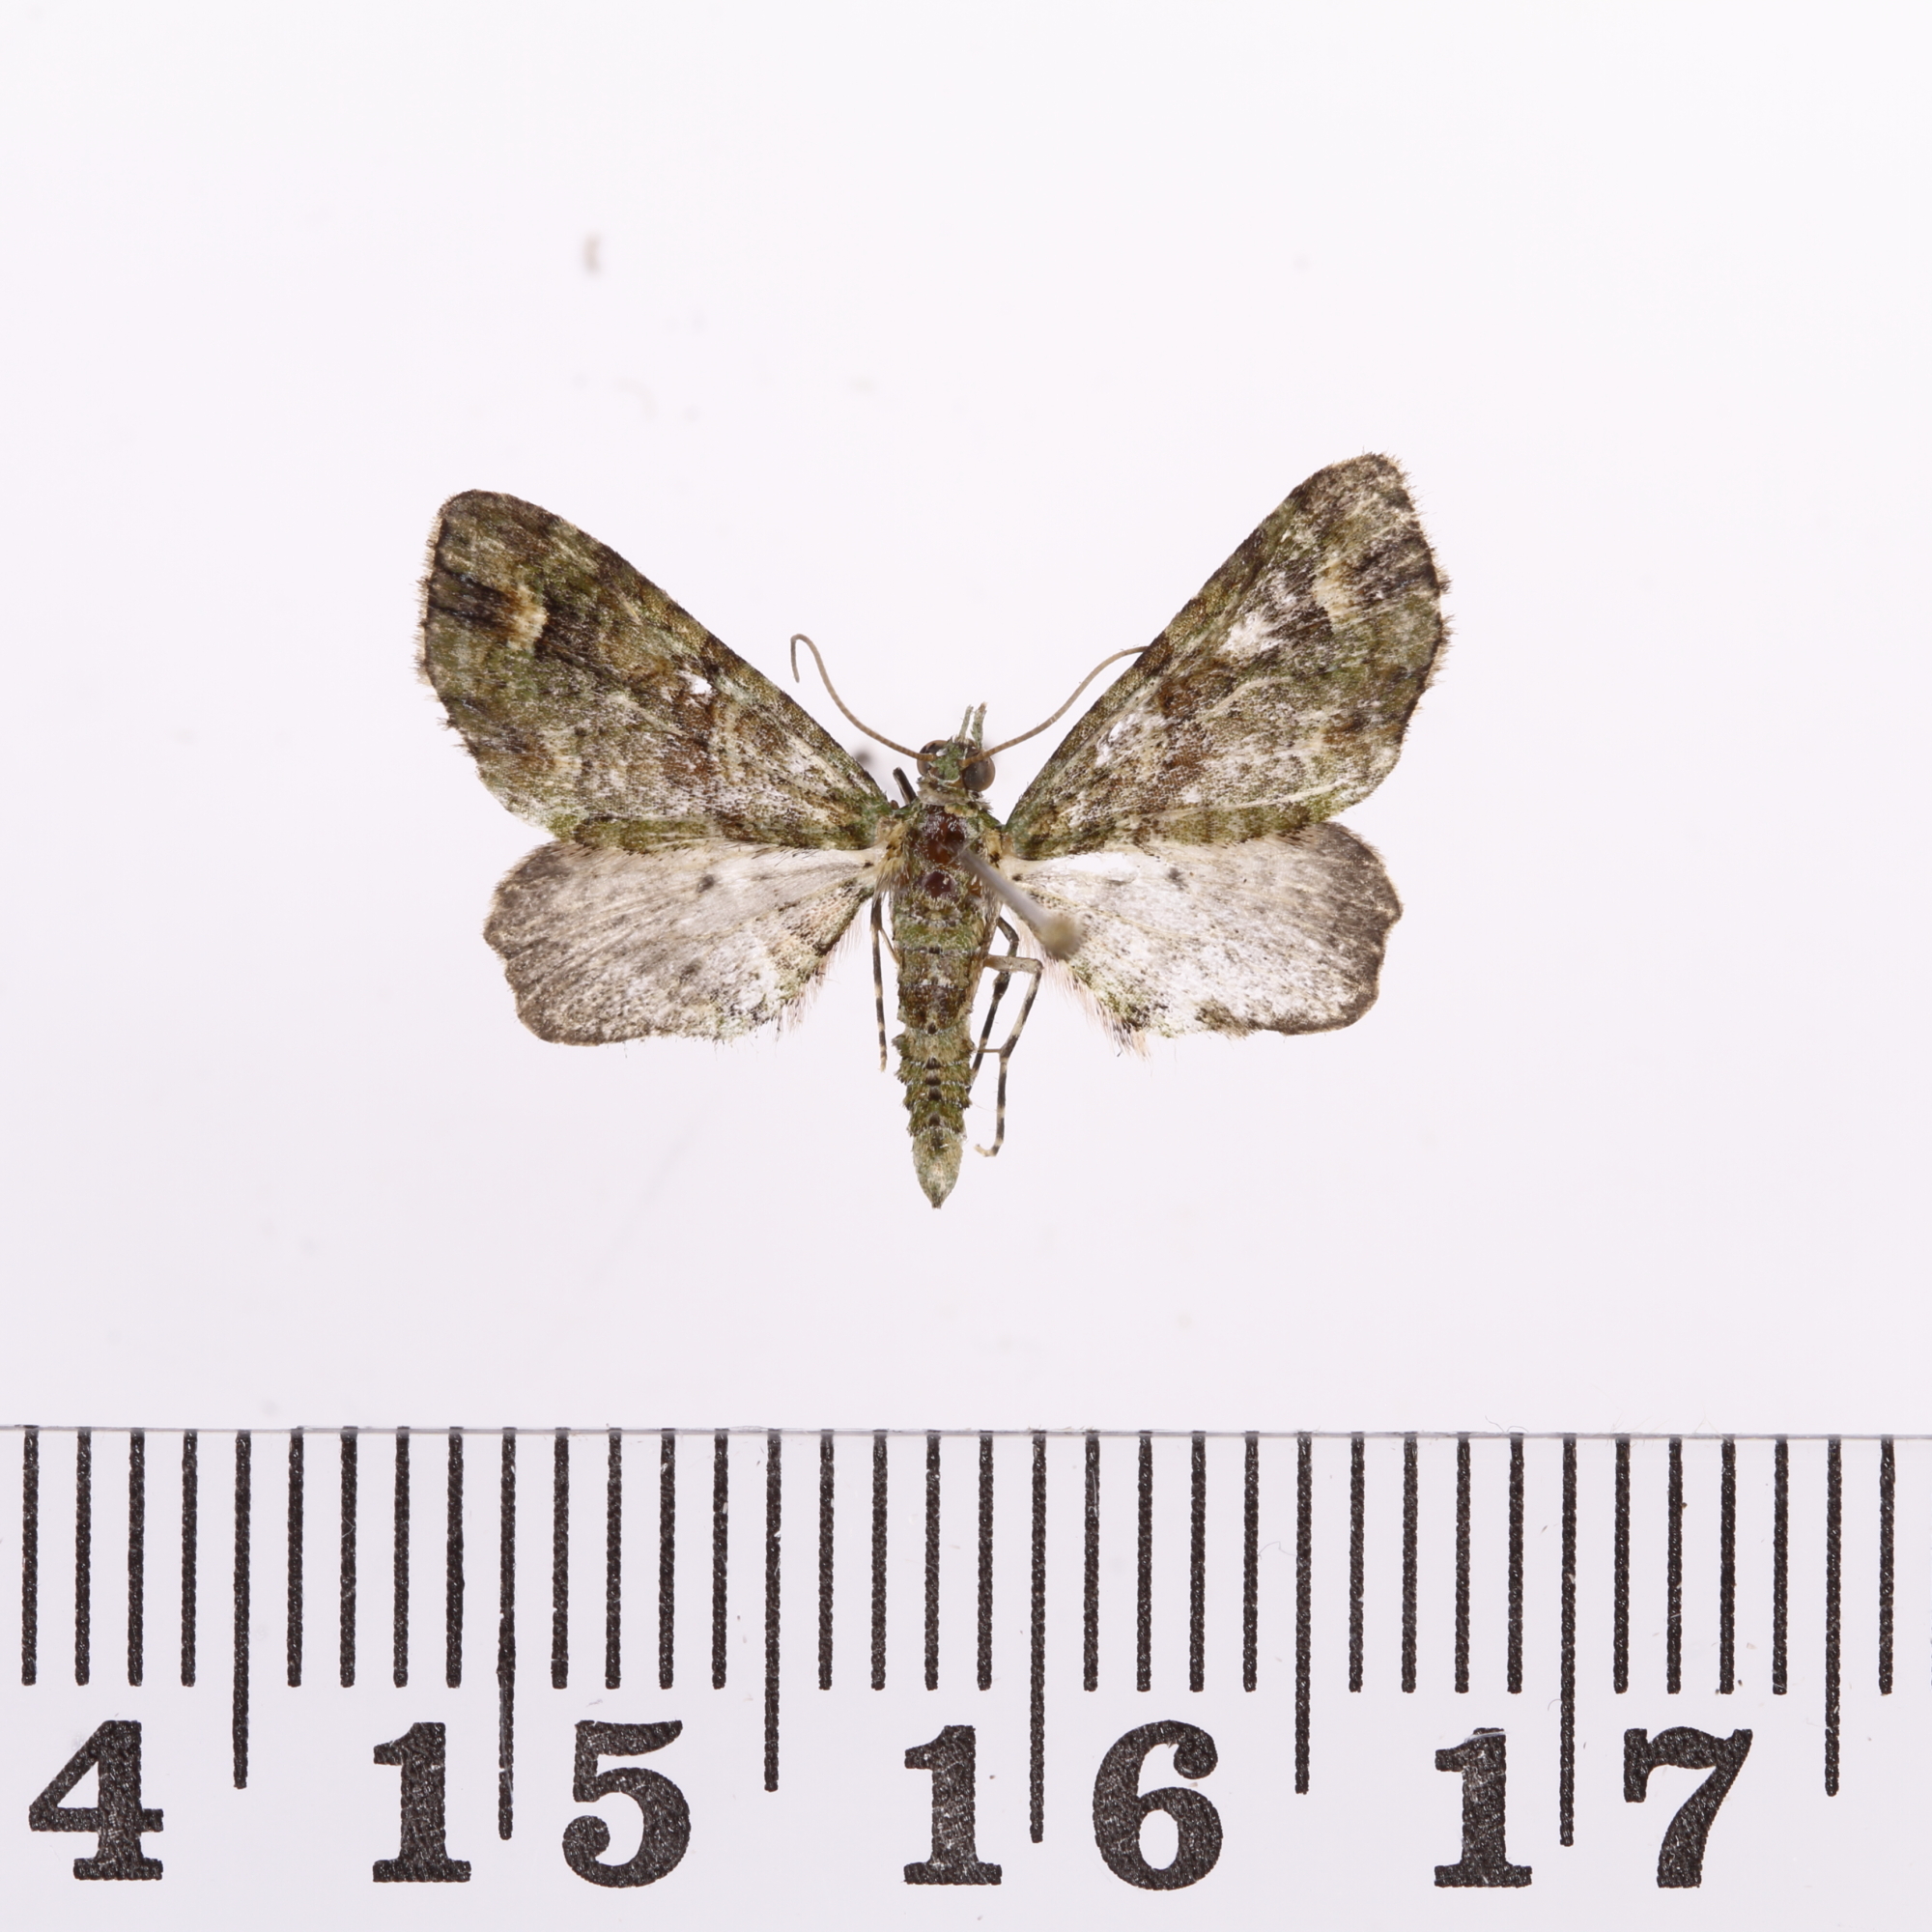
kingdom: Animalia
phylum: Arthropoda
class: Insecta
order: Lepidoptera
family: Geometridae
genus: Idaea
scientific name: Idaea mutanda
